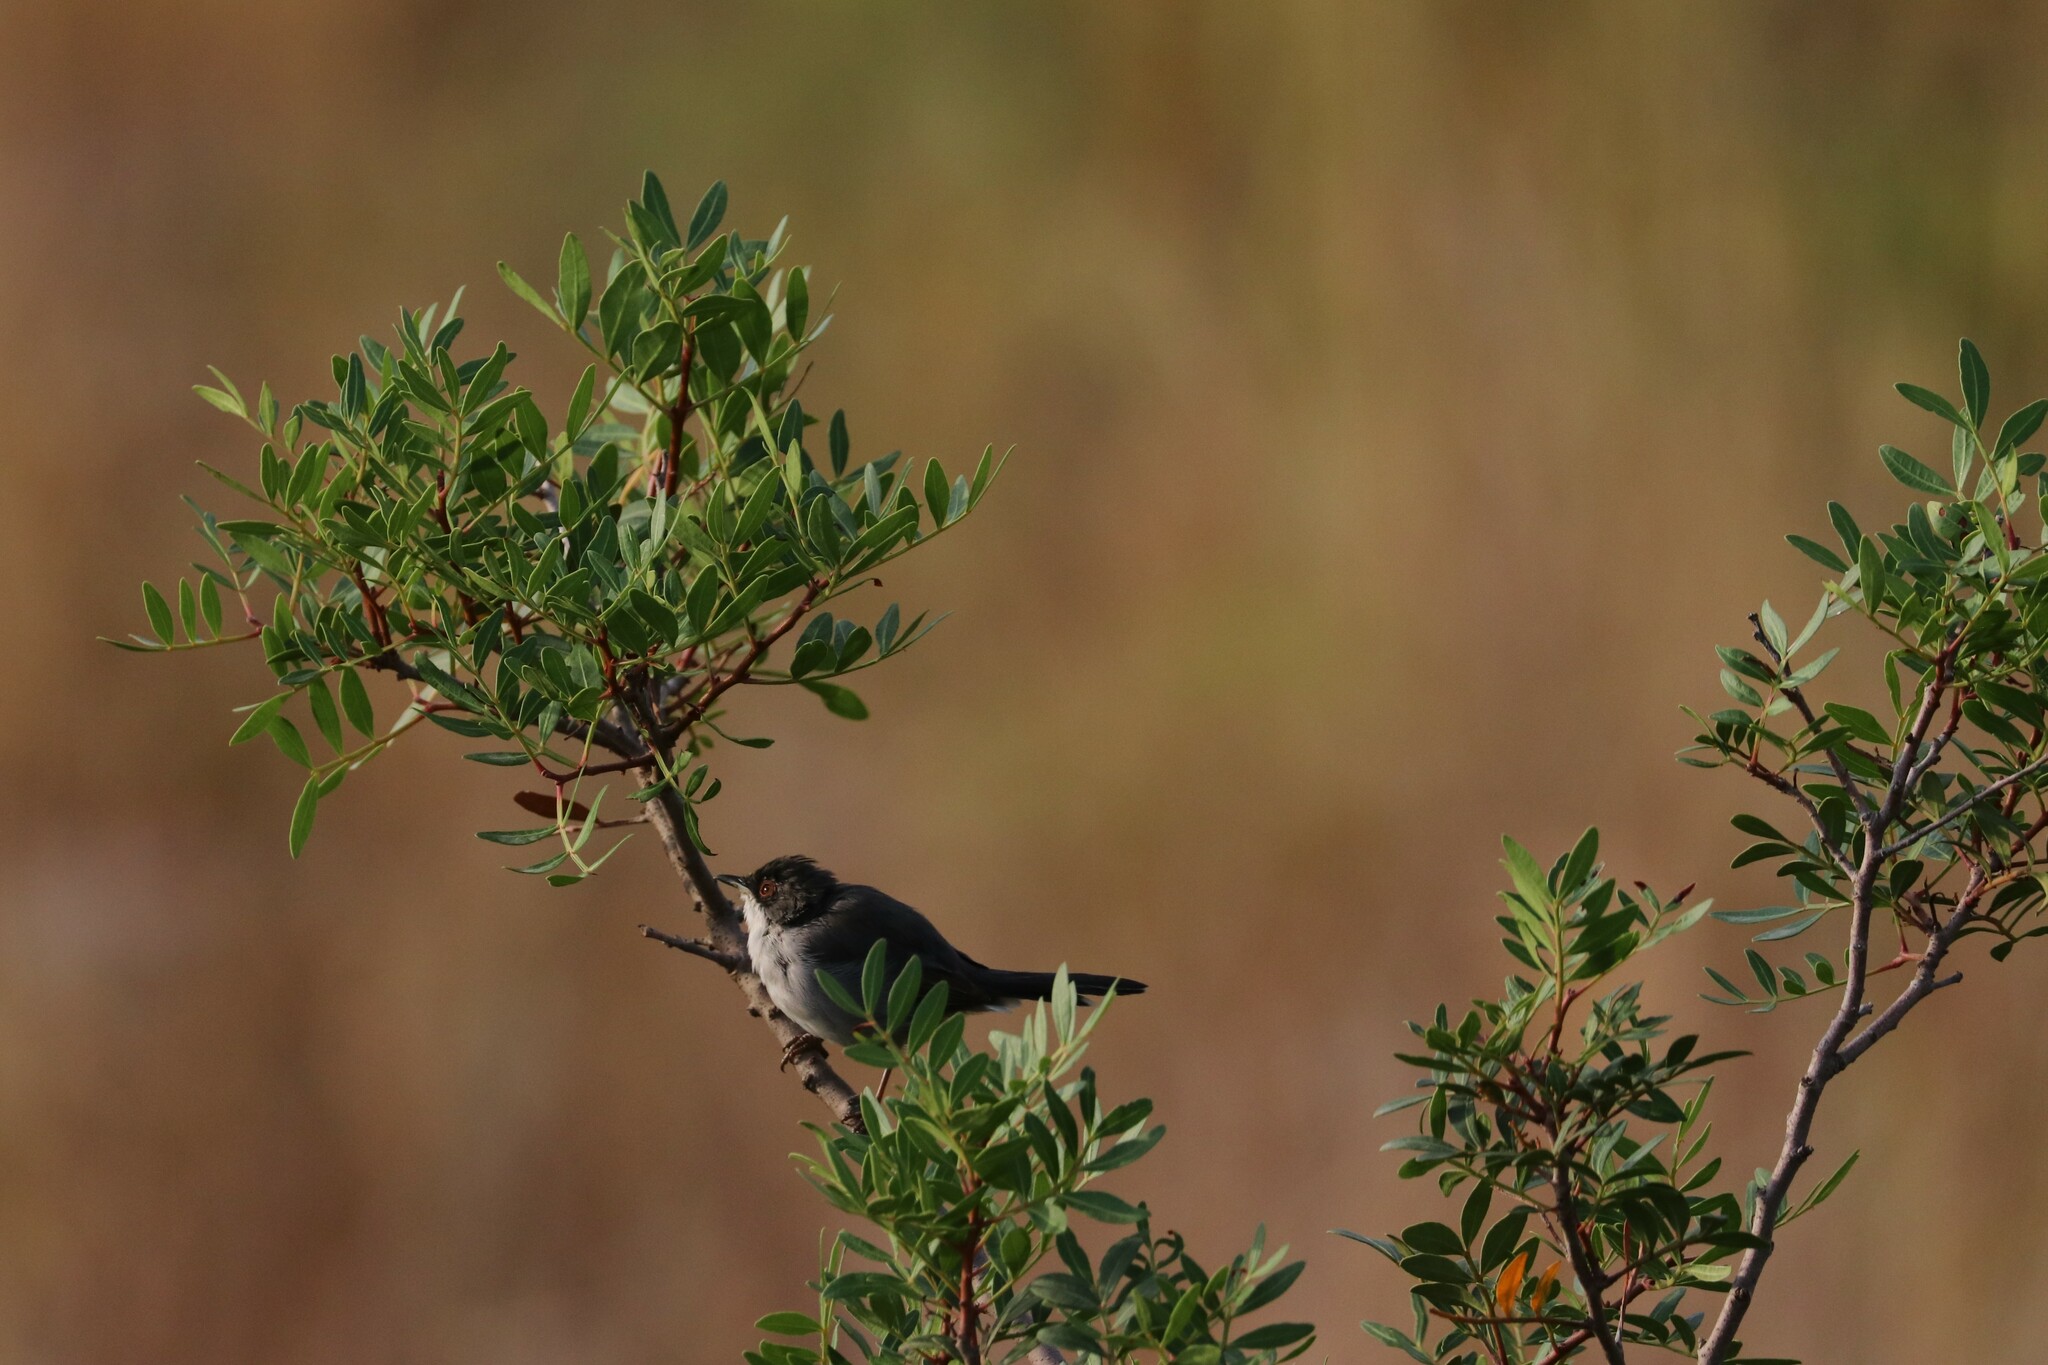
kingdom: Animalia
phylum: Chordata
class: Aves
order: Passeriformes
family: Sylviidae
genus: Curruca
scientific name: Curruca melanocephala
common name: Sardinian warbler
